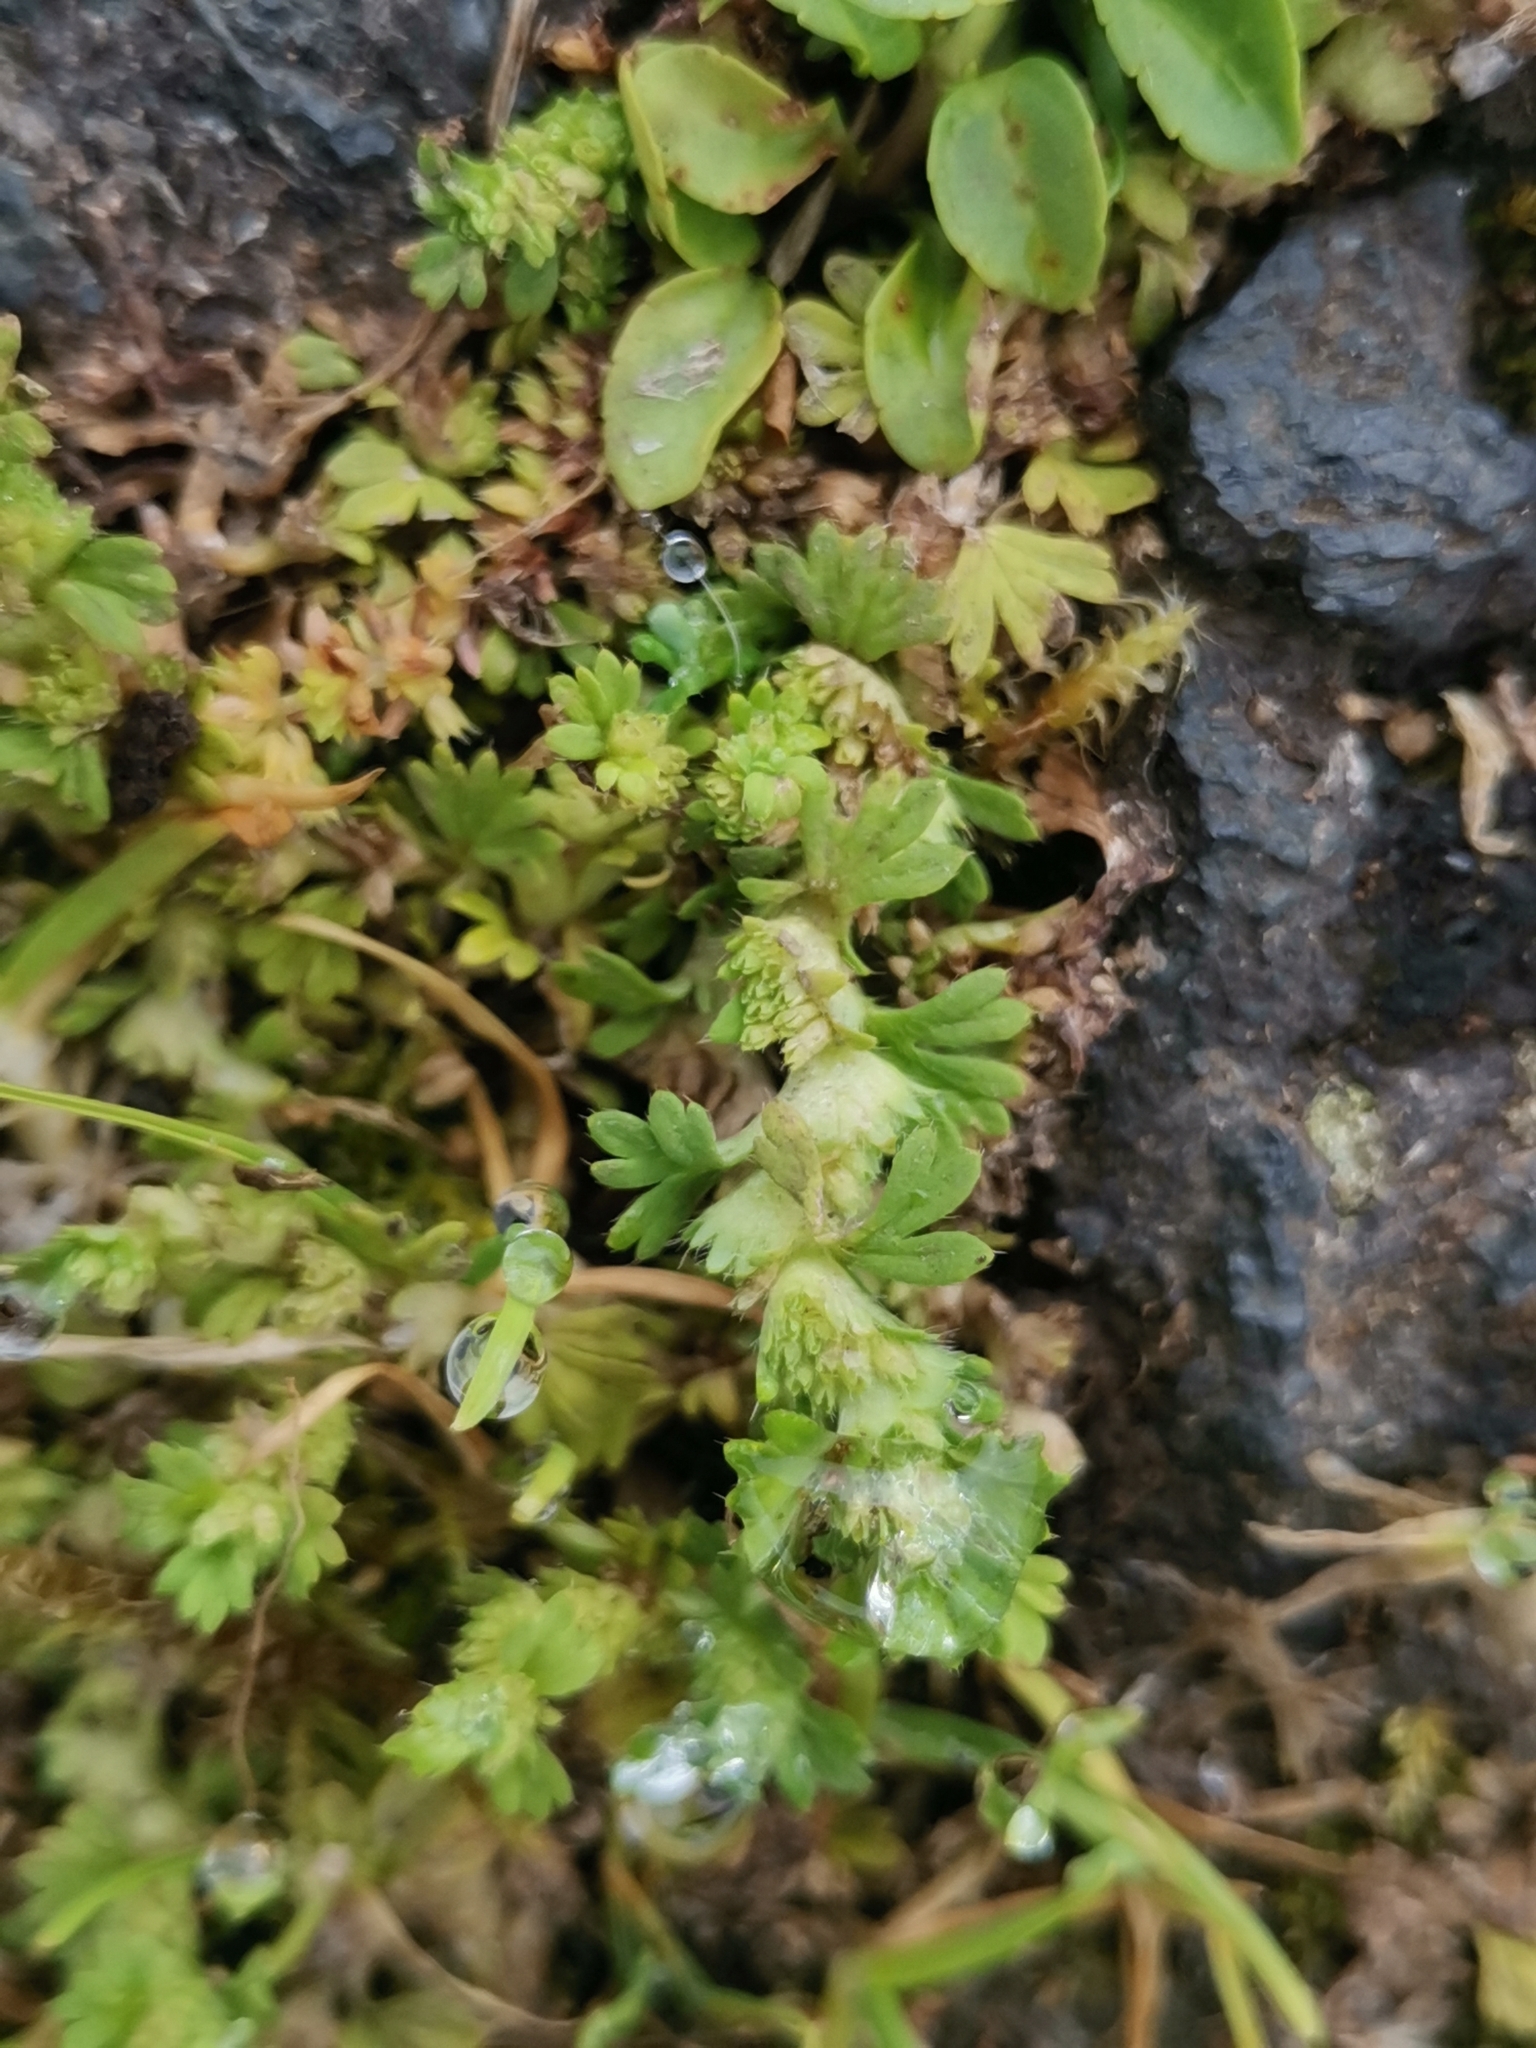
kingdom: Plantae
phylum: Tracheophyta
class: Magnoliopsida
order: Rosales
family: Rosaceae
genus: Aphanes
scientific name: Aphanes microcarpa
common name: Slender parsley piert
